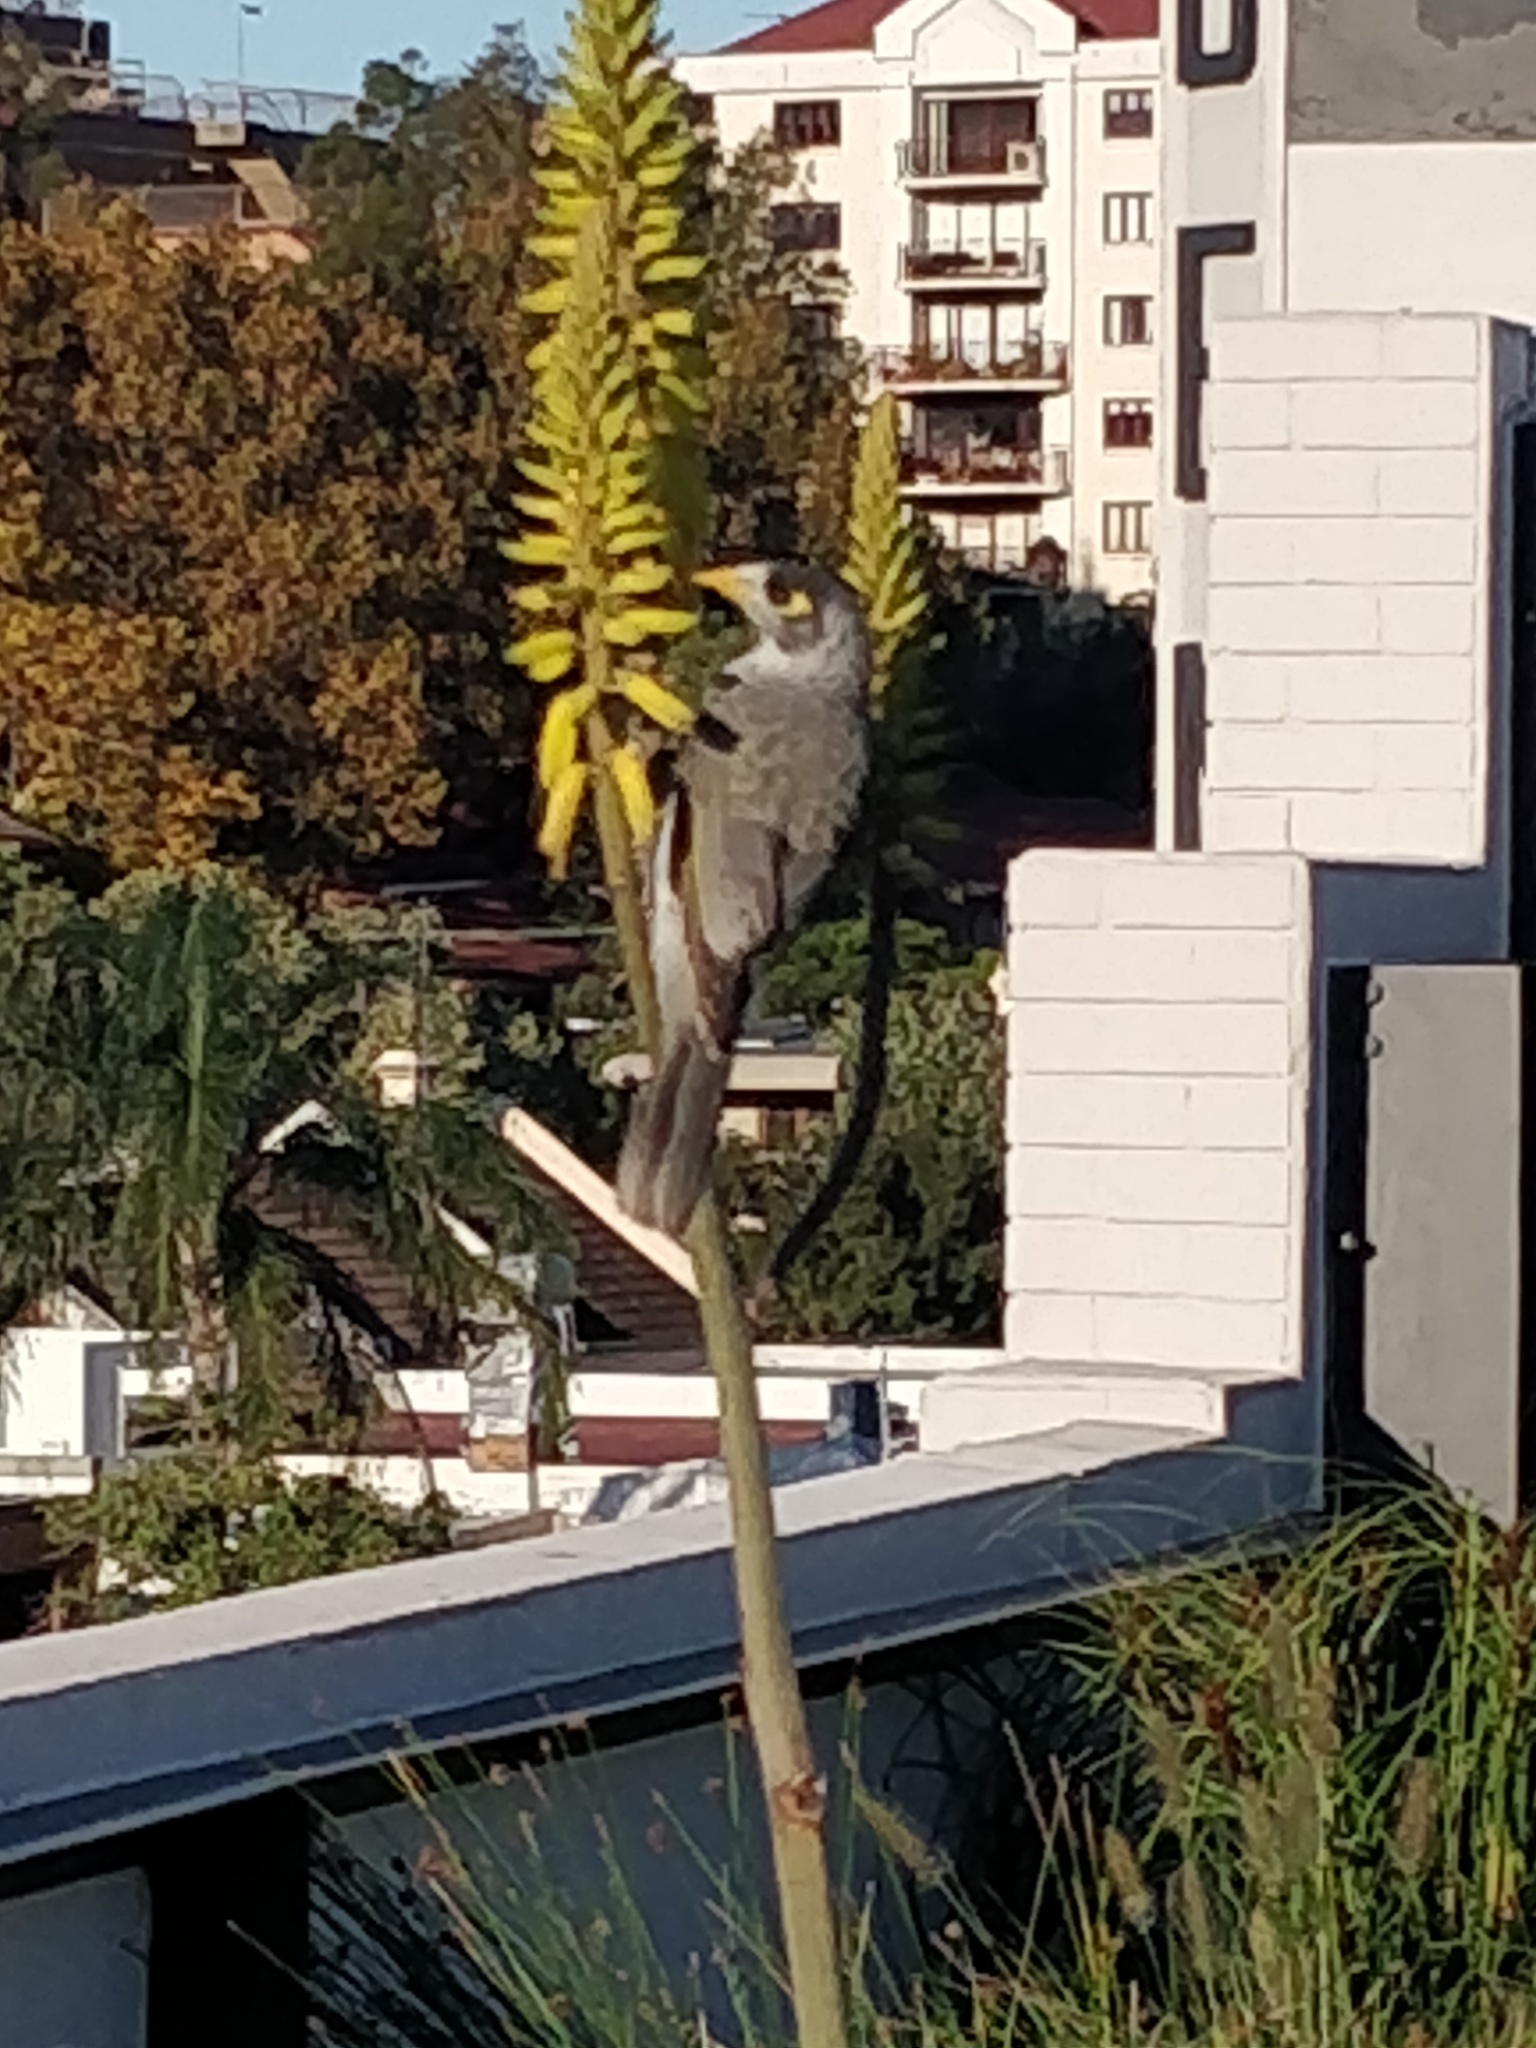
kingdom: Animalia
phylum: Chordata
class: Aves
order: Passeriformes
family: Meliphagidae
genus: Manorina
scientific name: Manorina melanocephala
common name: Noisy miner
